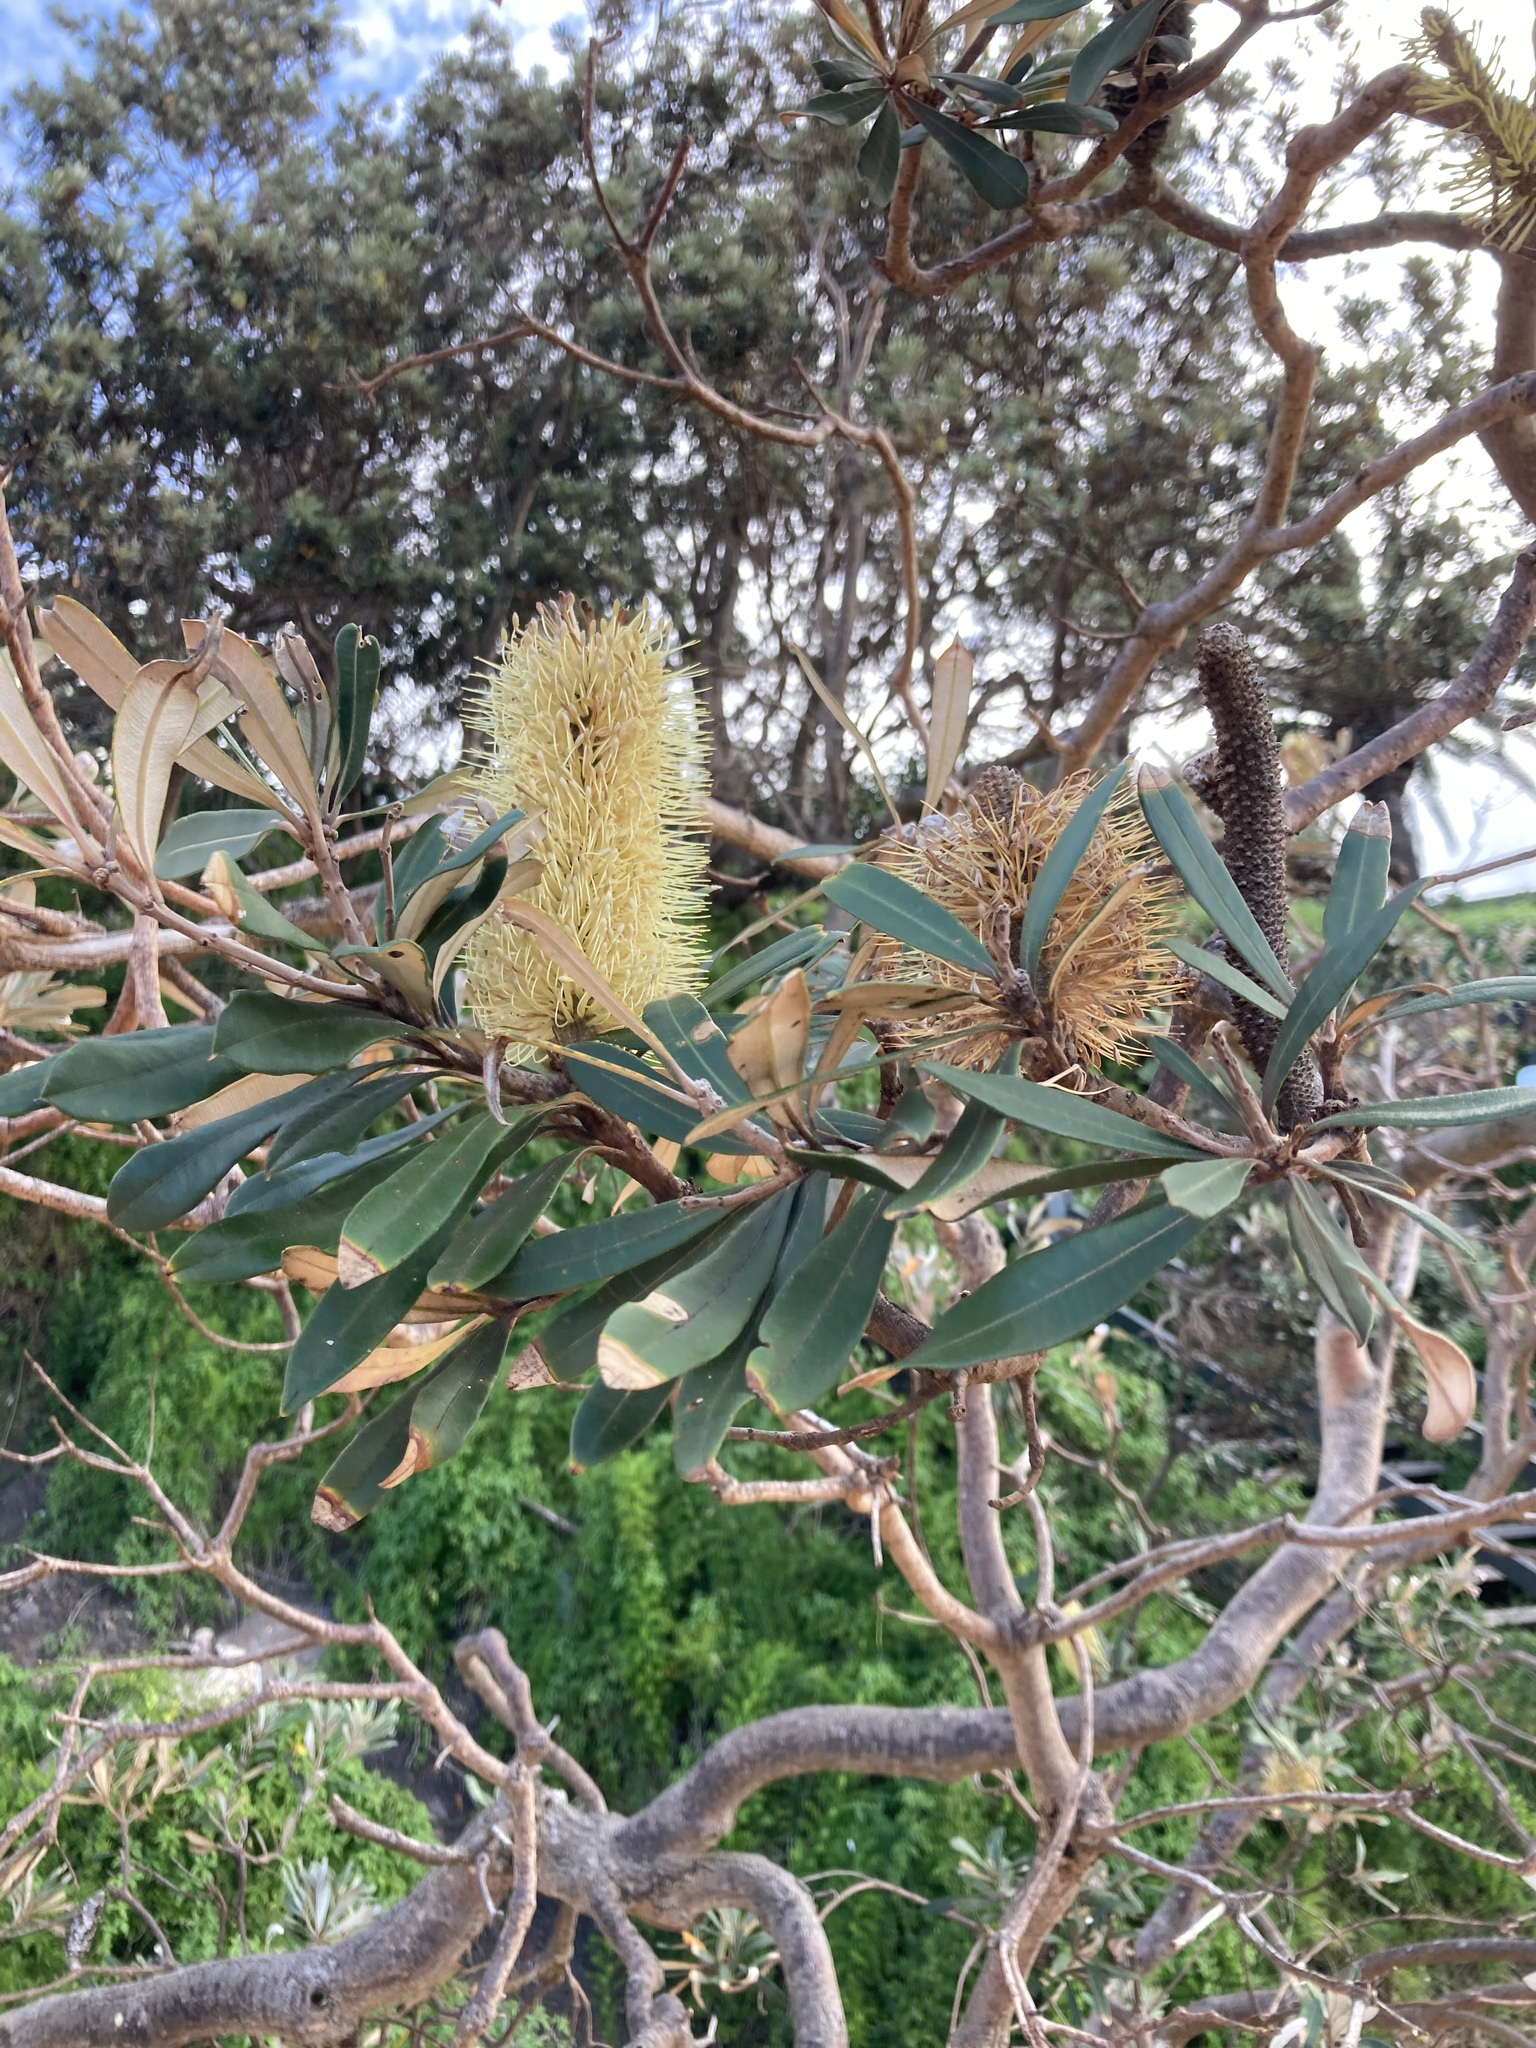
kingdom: Plantae
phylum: Tracheophyta
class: Magnoliopsida
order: Proteales
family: Proteaceae
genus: Banksia
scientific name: Banksia integrifolia
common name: White-honeysuckle
